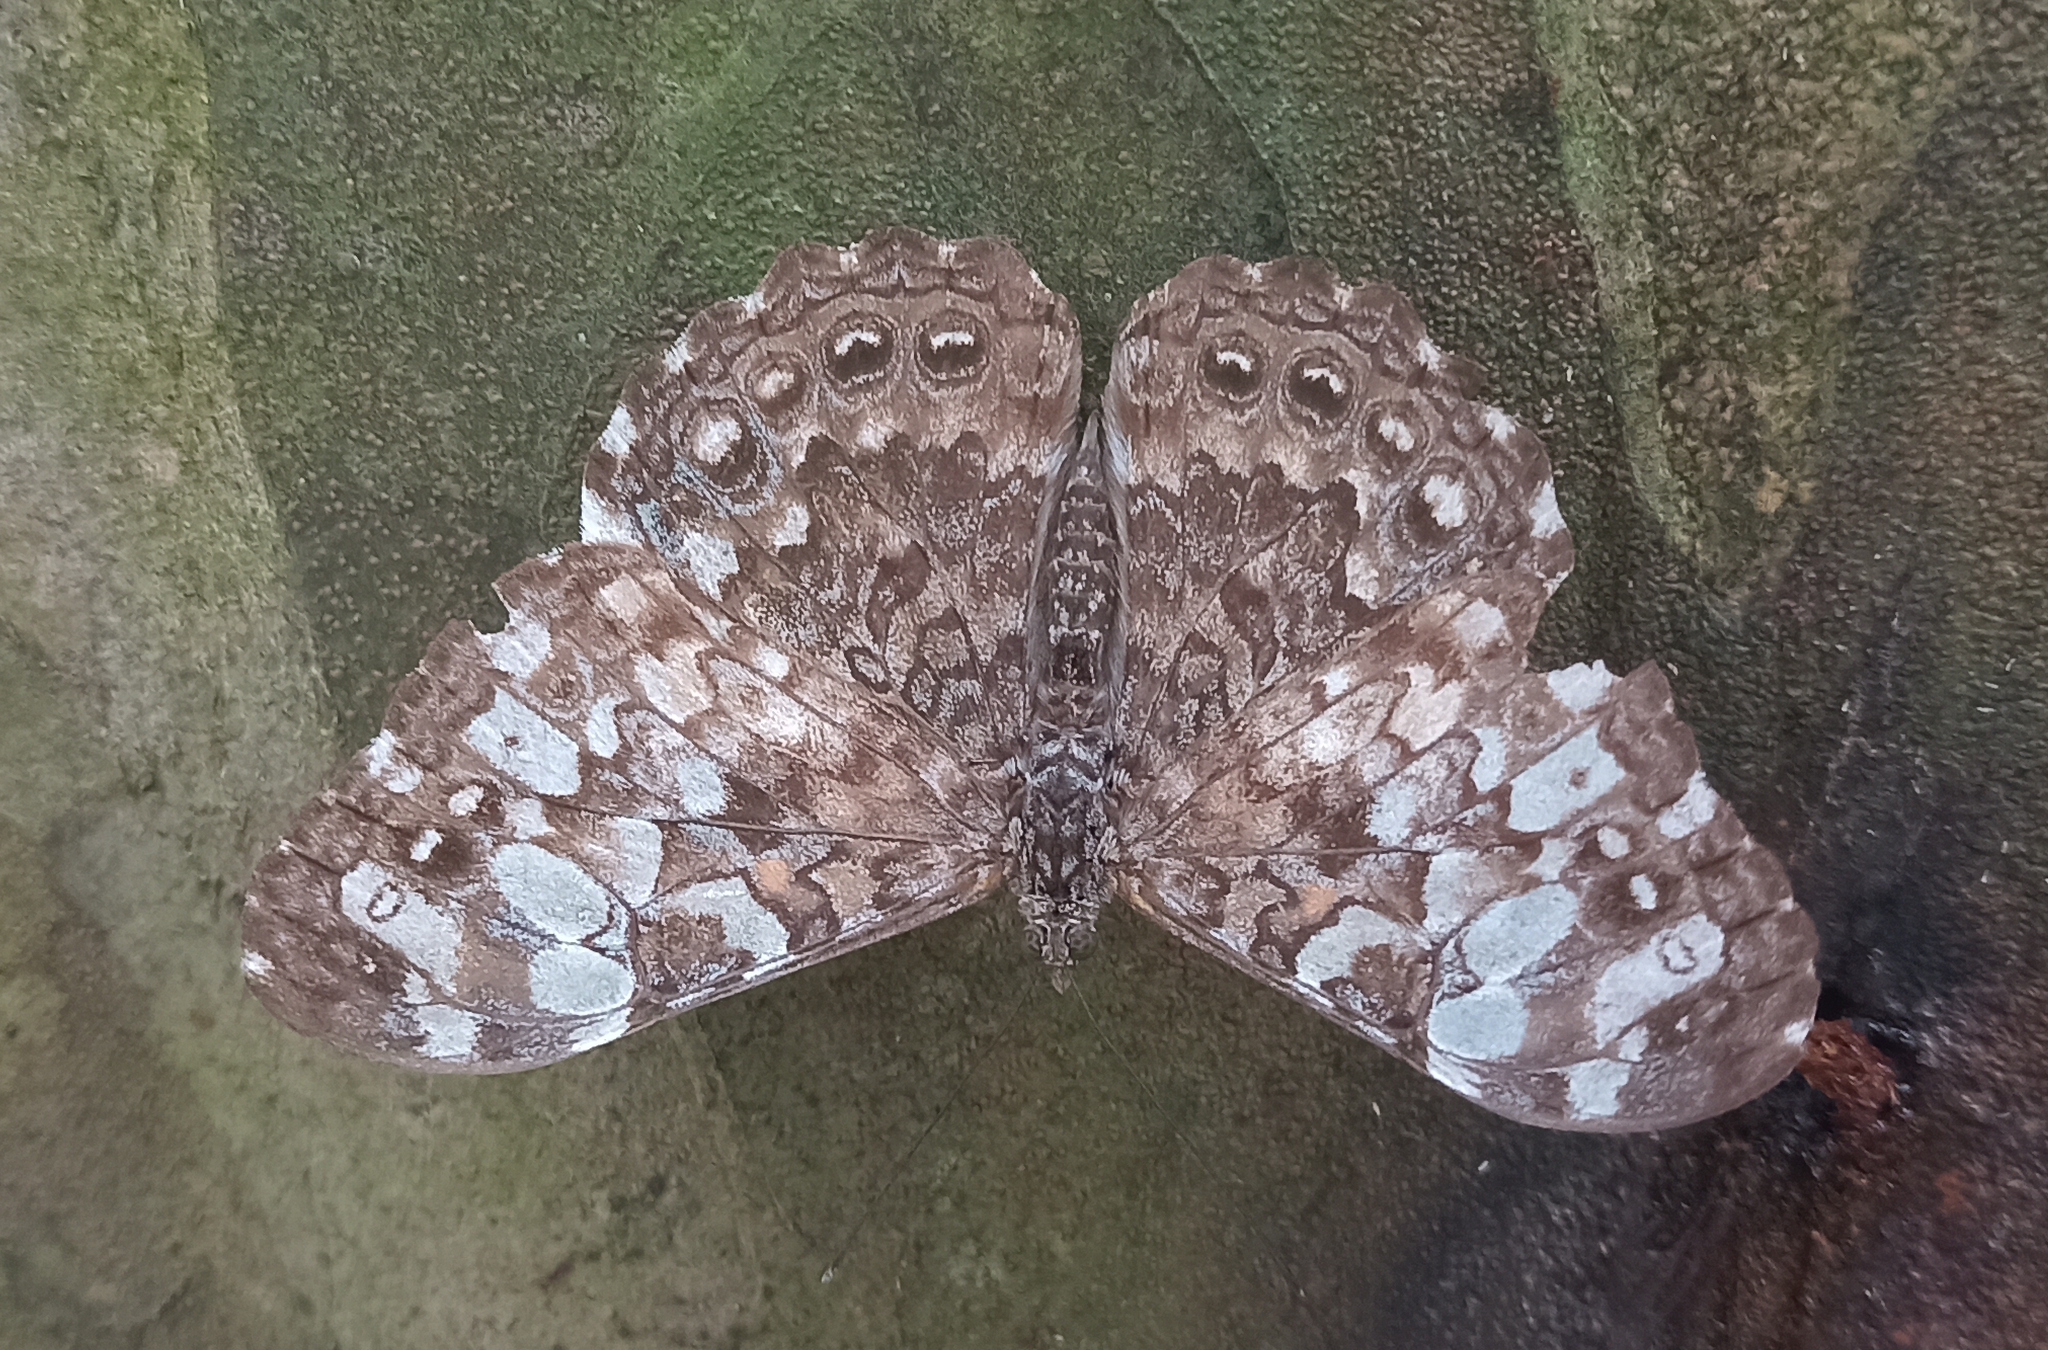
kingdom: Animalia
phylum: Arthropoda
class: Insecta
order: Lepidoptera
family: Nymphalidae
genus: Hamadryas
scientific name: Hamadryas epinome
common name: Epinome cracker
